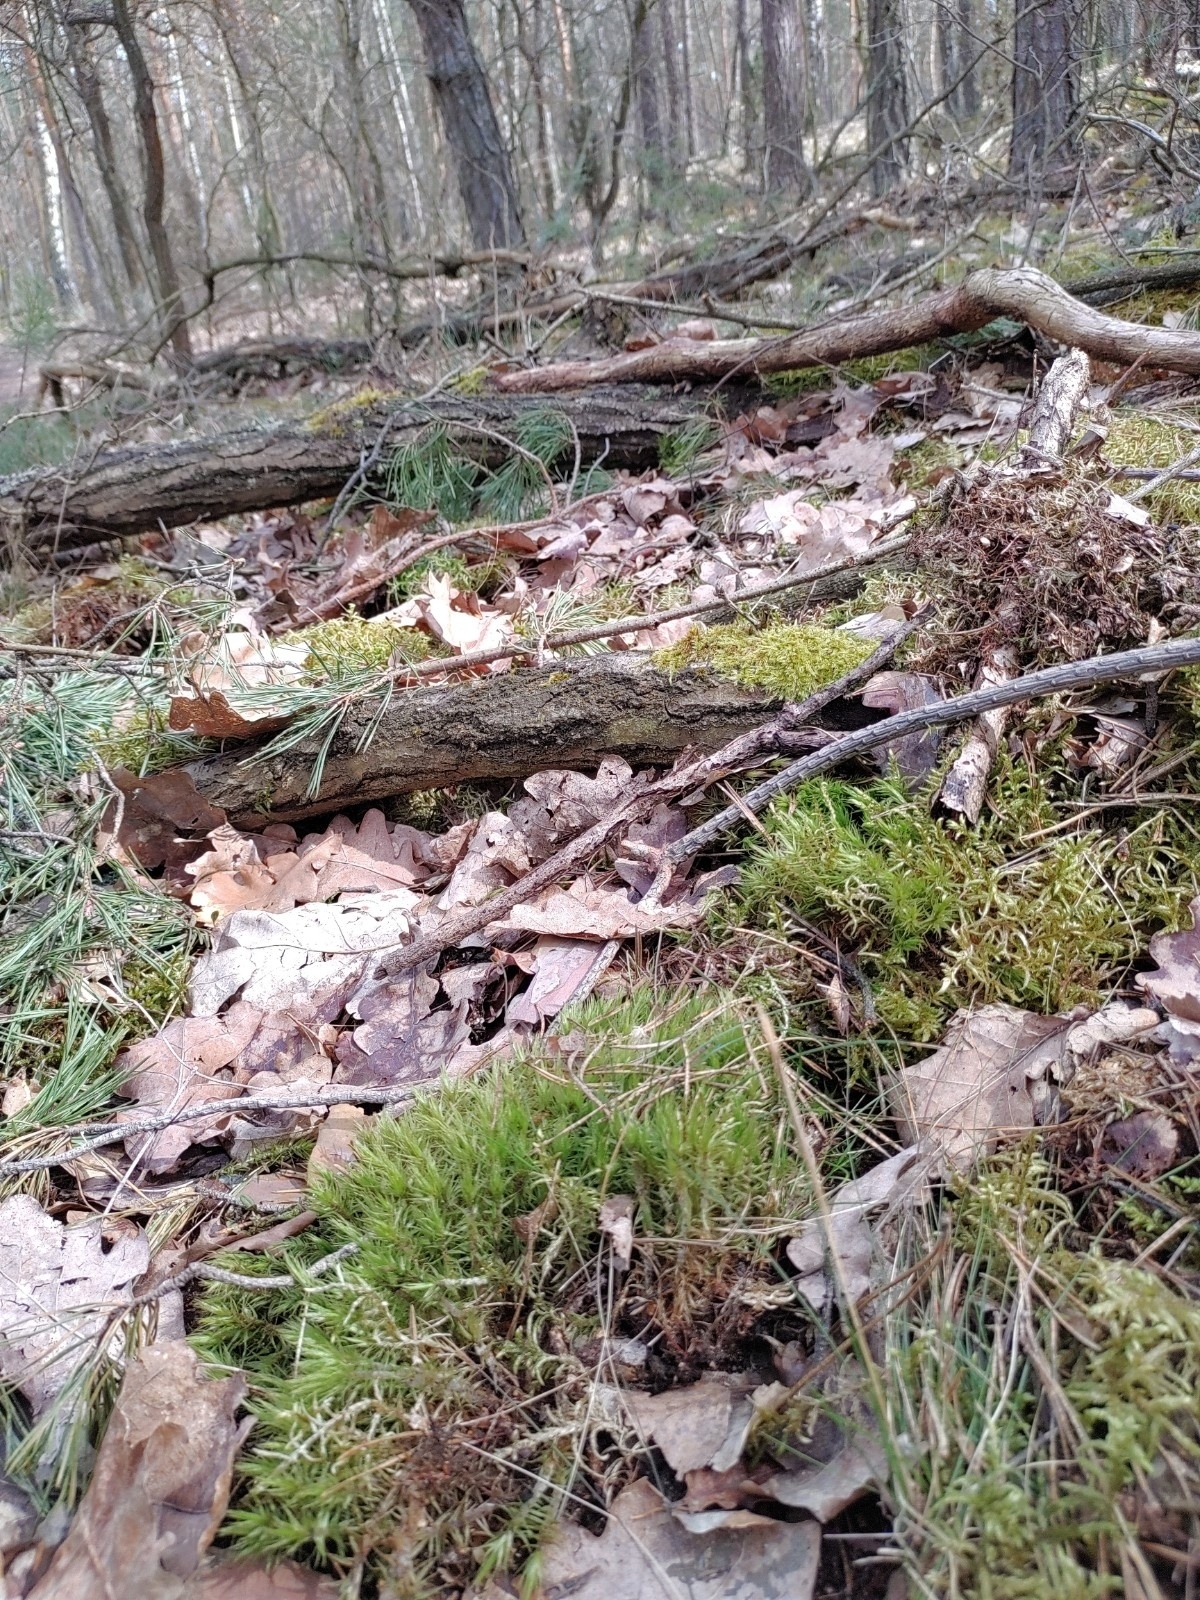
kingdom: Plantae
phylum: Bryophyta
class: Bryopsida
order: Dicranales
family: Dicranaceae
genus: Dicranum
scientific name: Dicranum polysetum
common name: Rugose fork-moss
